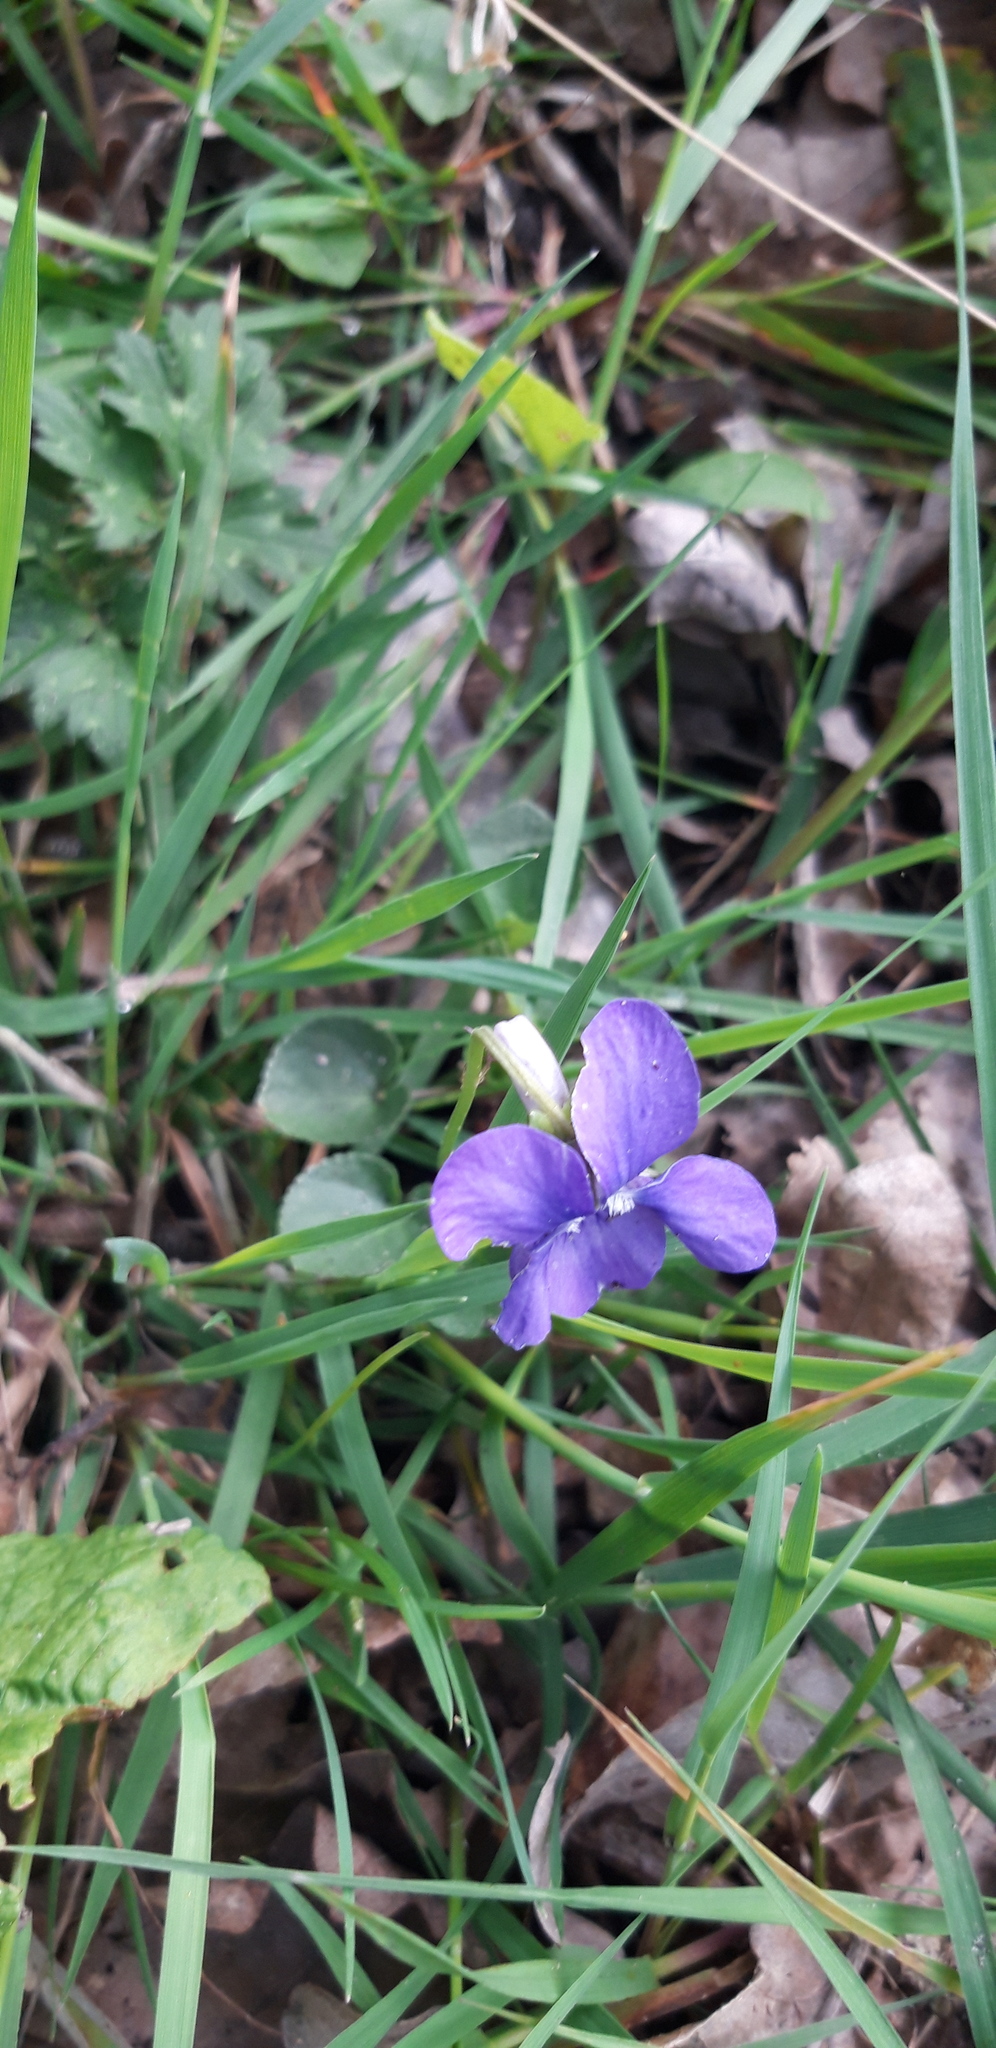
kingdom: Plantae
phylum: Tracheophyta
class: Magnoliopsida
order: Malpighiales
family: Violaceae
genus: Viola
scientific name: Viola riviniana
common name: Common dog-violet
